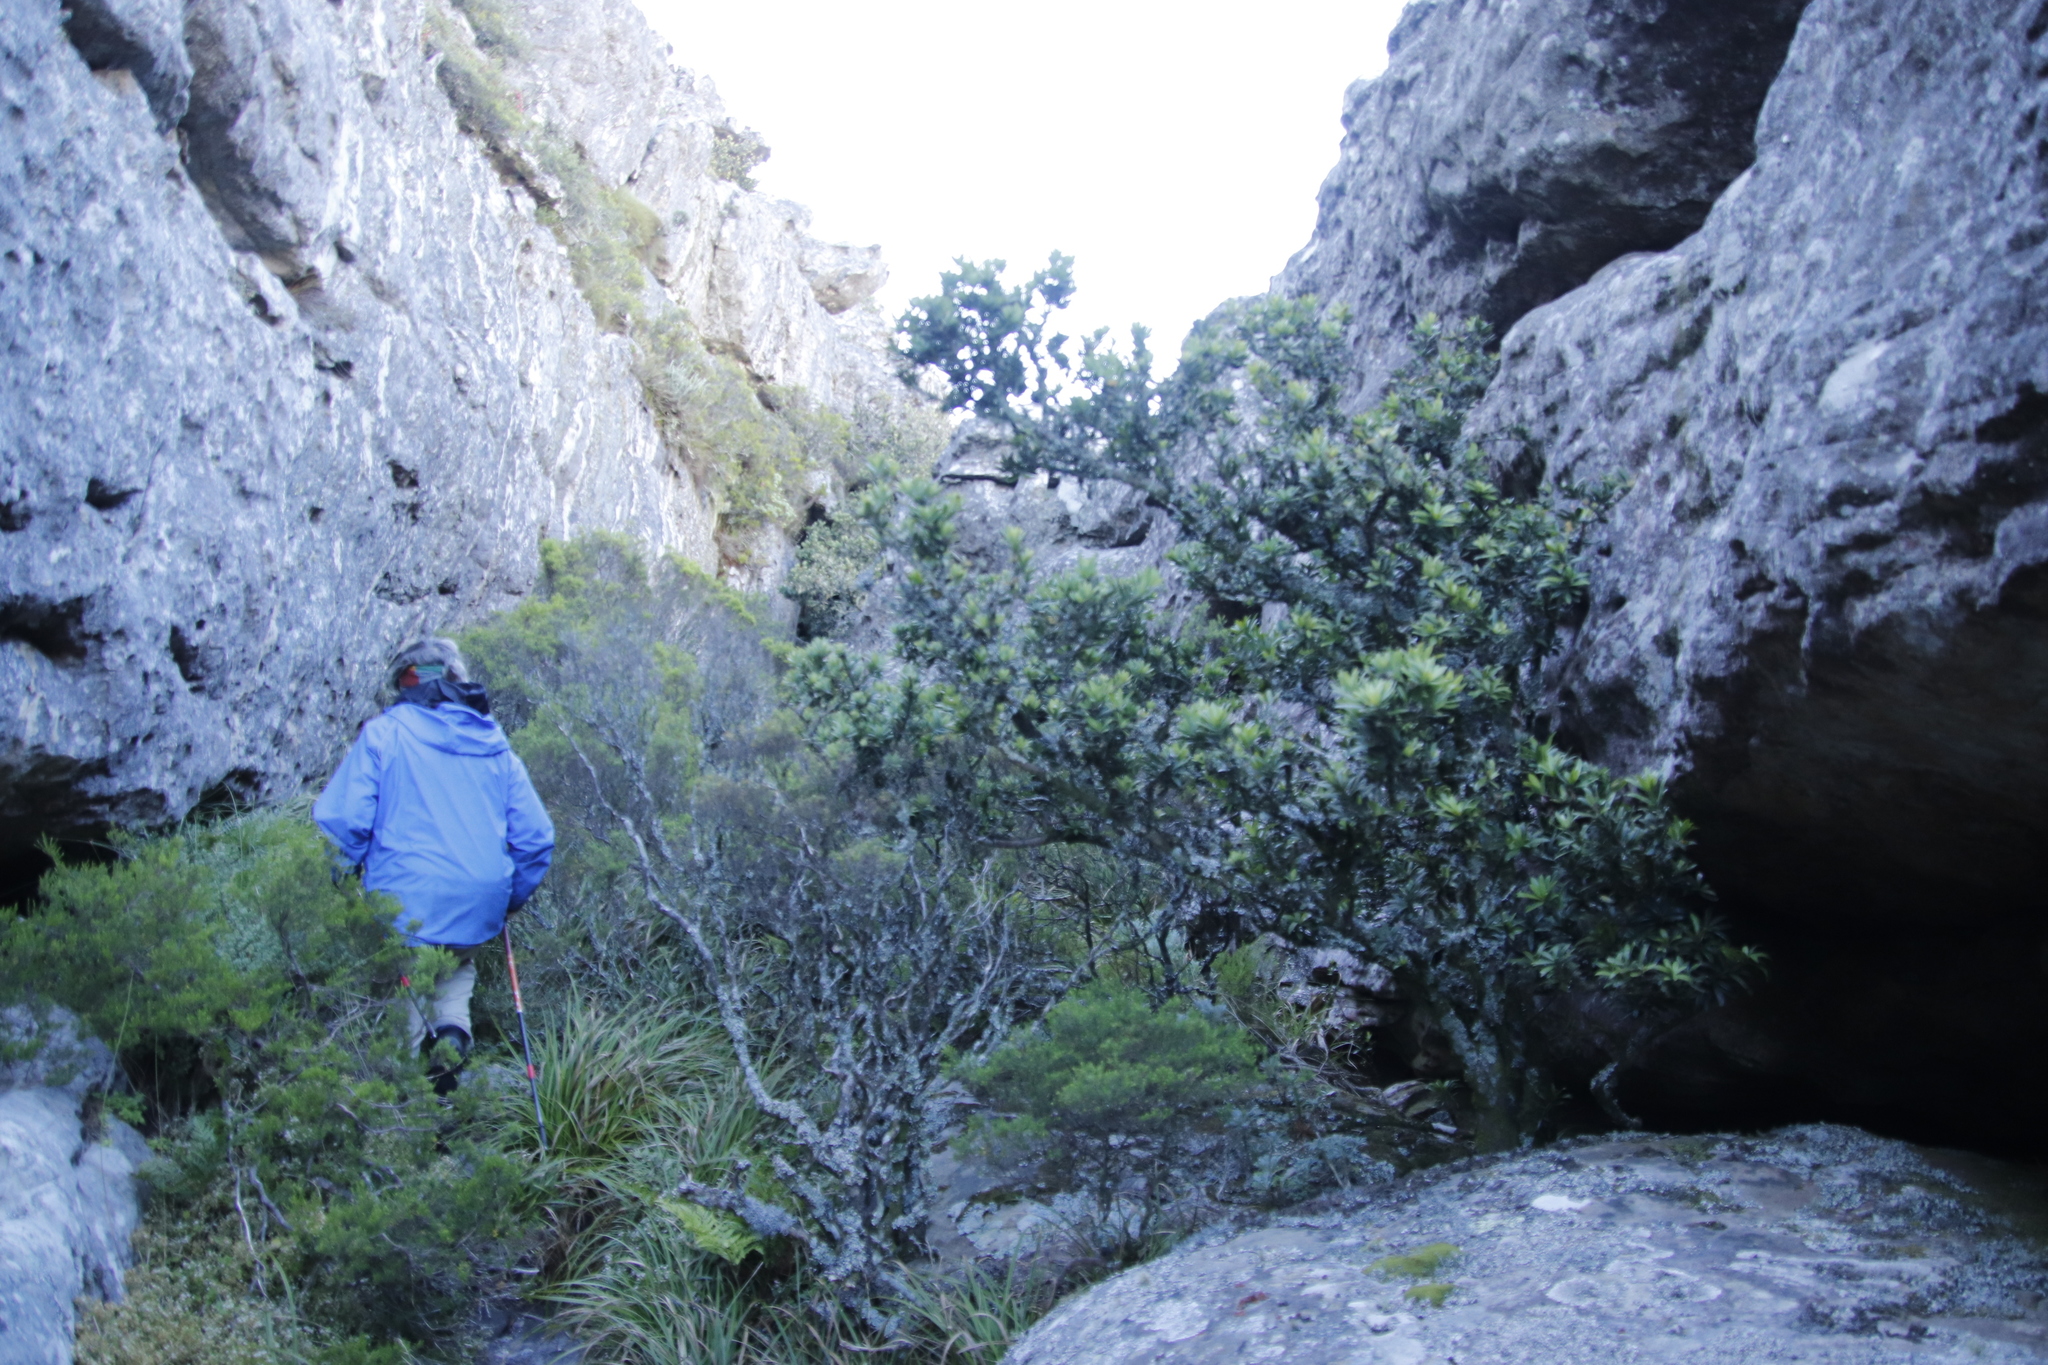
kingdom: Plantae
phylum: Tracheophyta
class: Pinopsida
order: Pinales
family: Podocarpaceae
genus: Podocarpus
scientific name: Podocarpus latifolius
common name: True yellowwood
